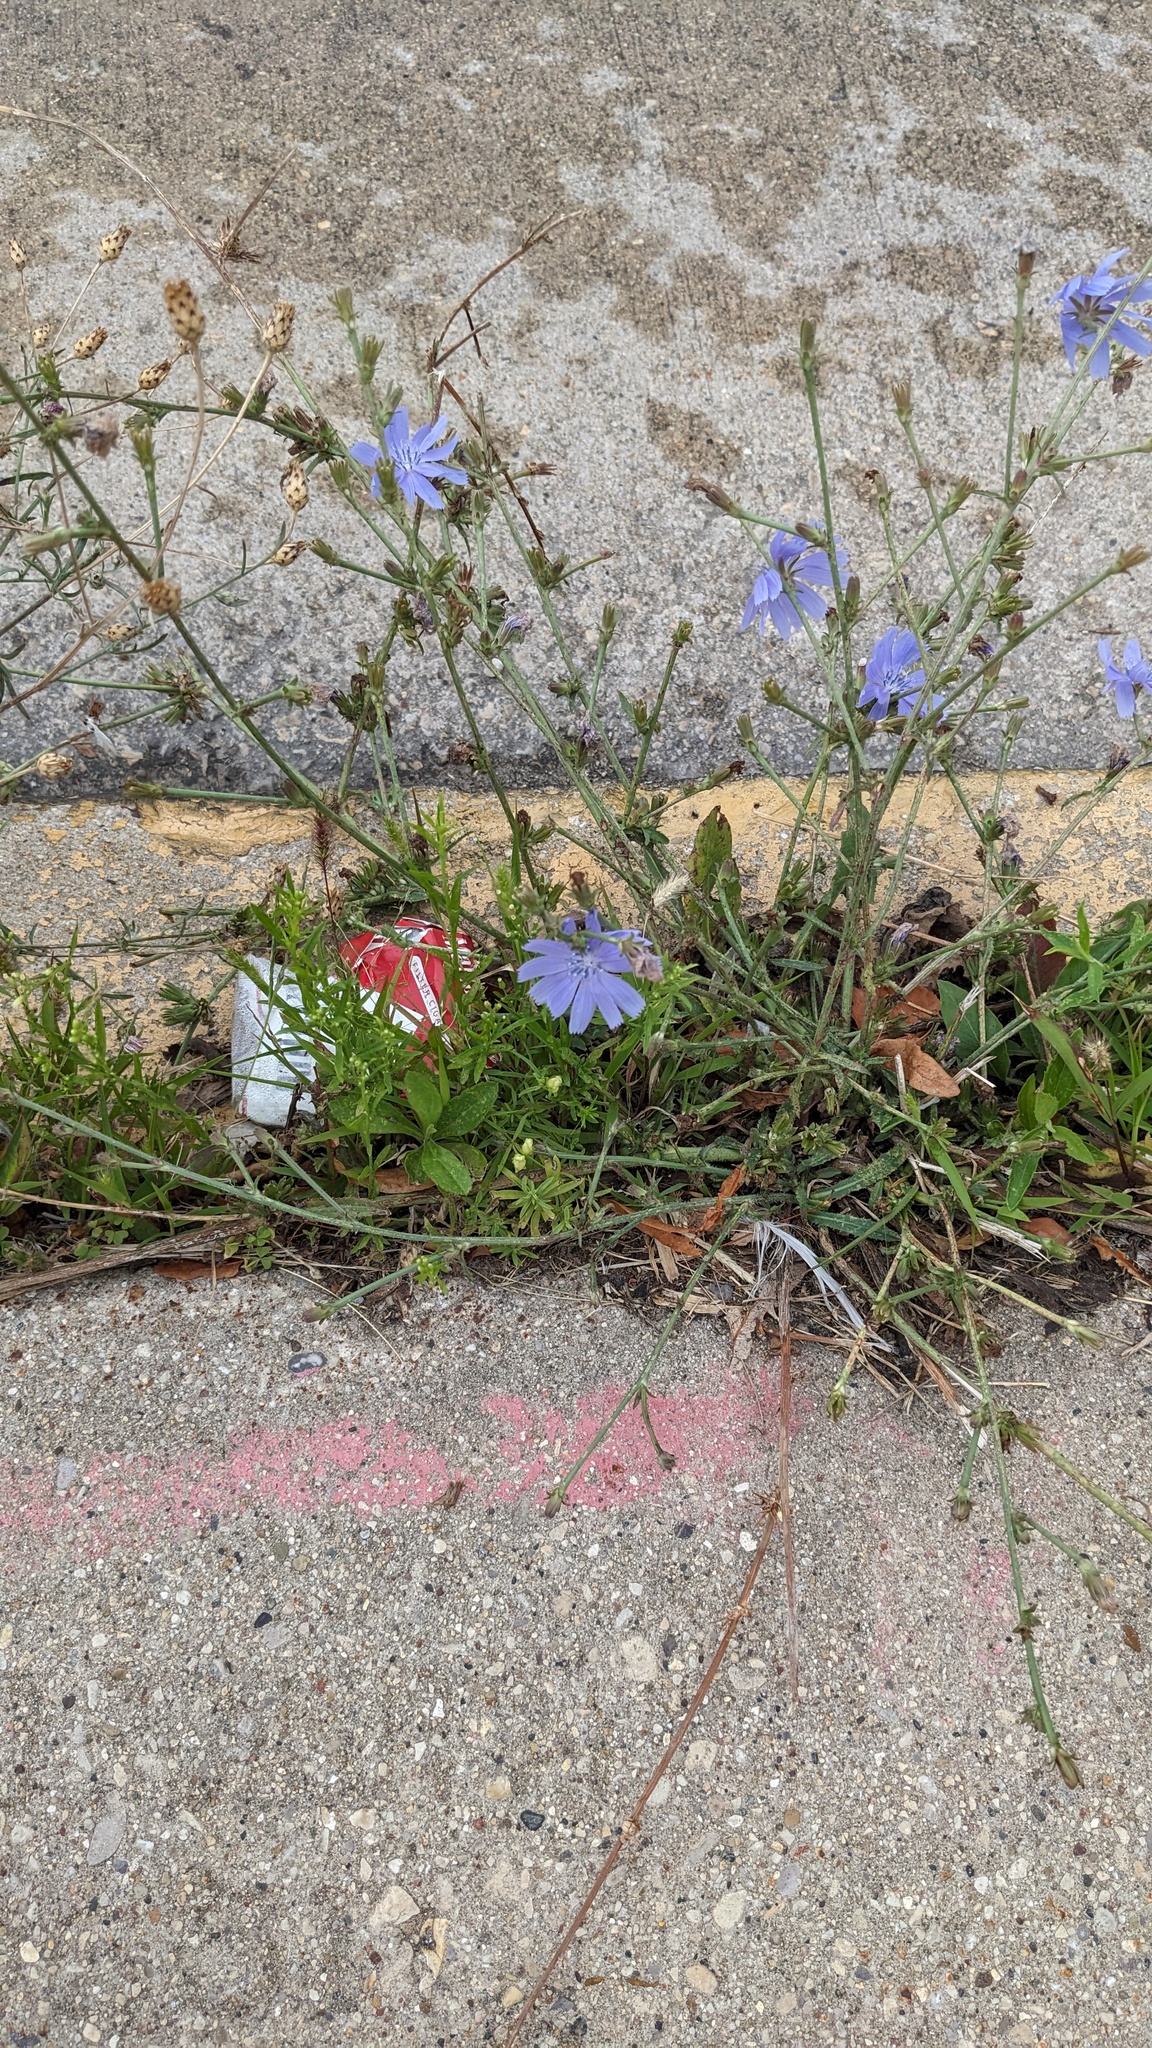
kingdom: Plantae
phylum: Tracheophyta
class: Magnoliopsida
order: Asterales
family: Asteraceae
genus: Cichorium
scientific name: Cichorium intybus
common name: Chicory
